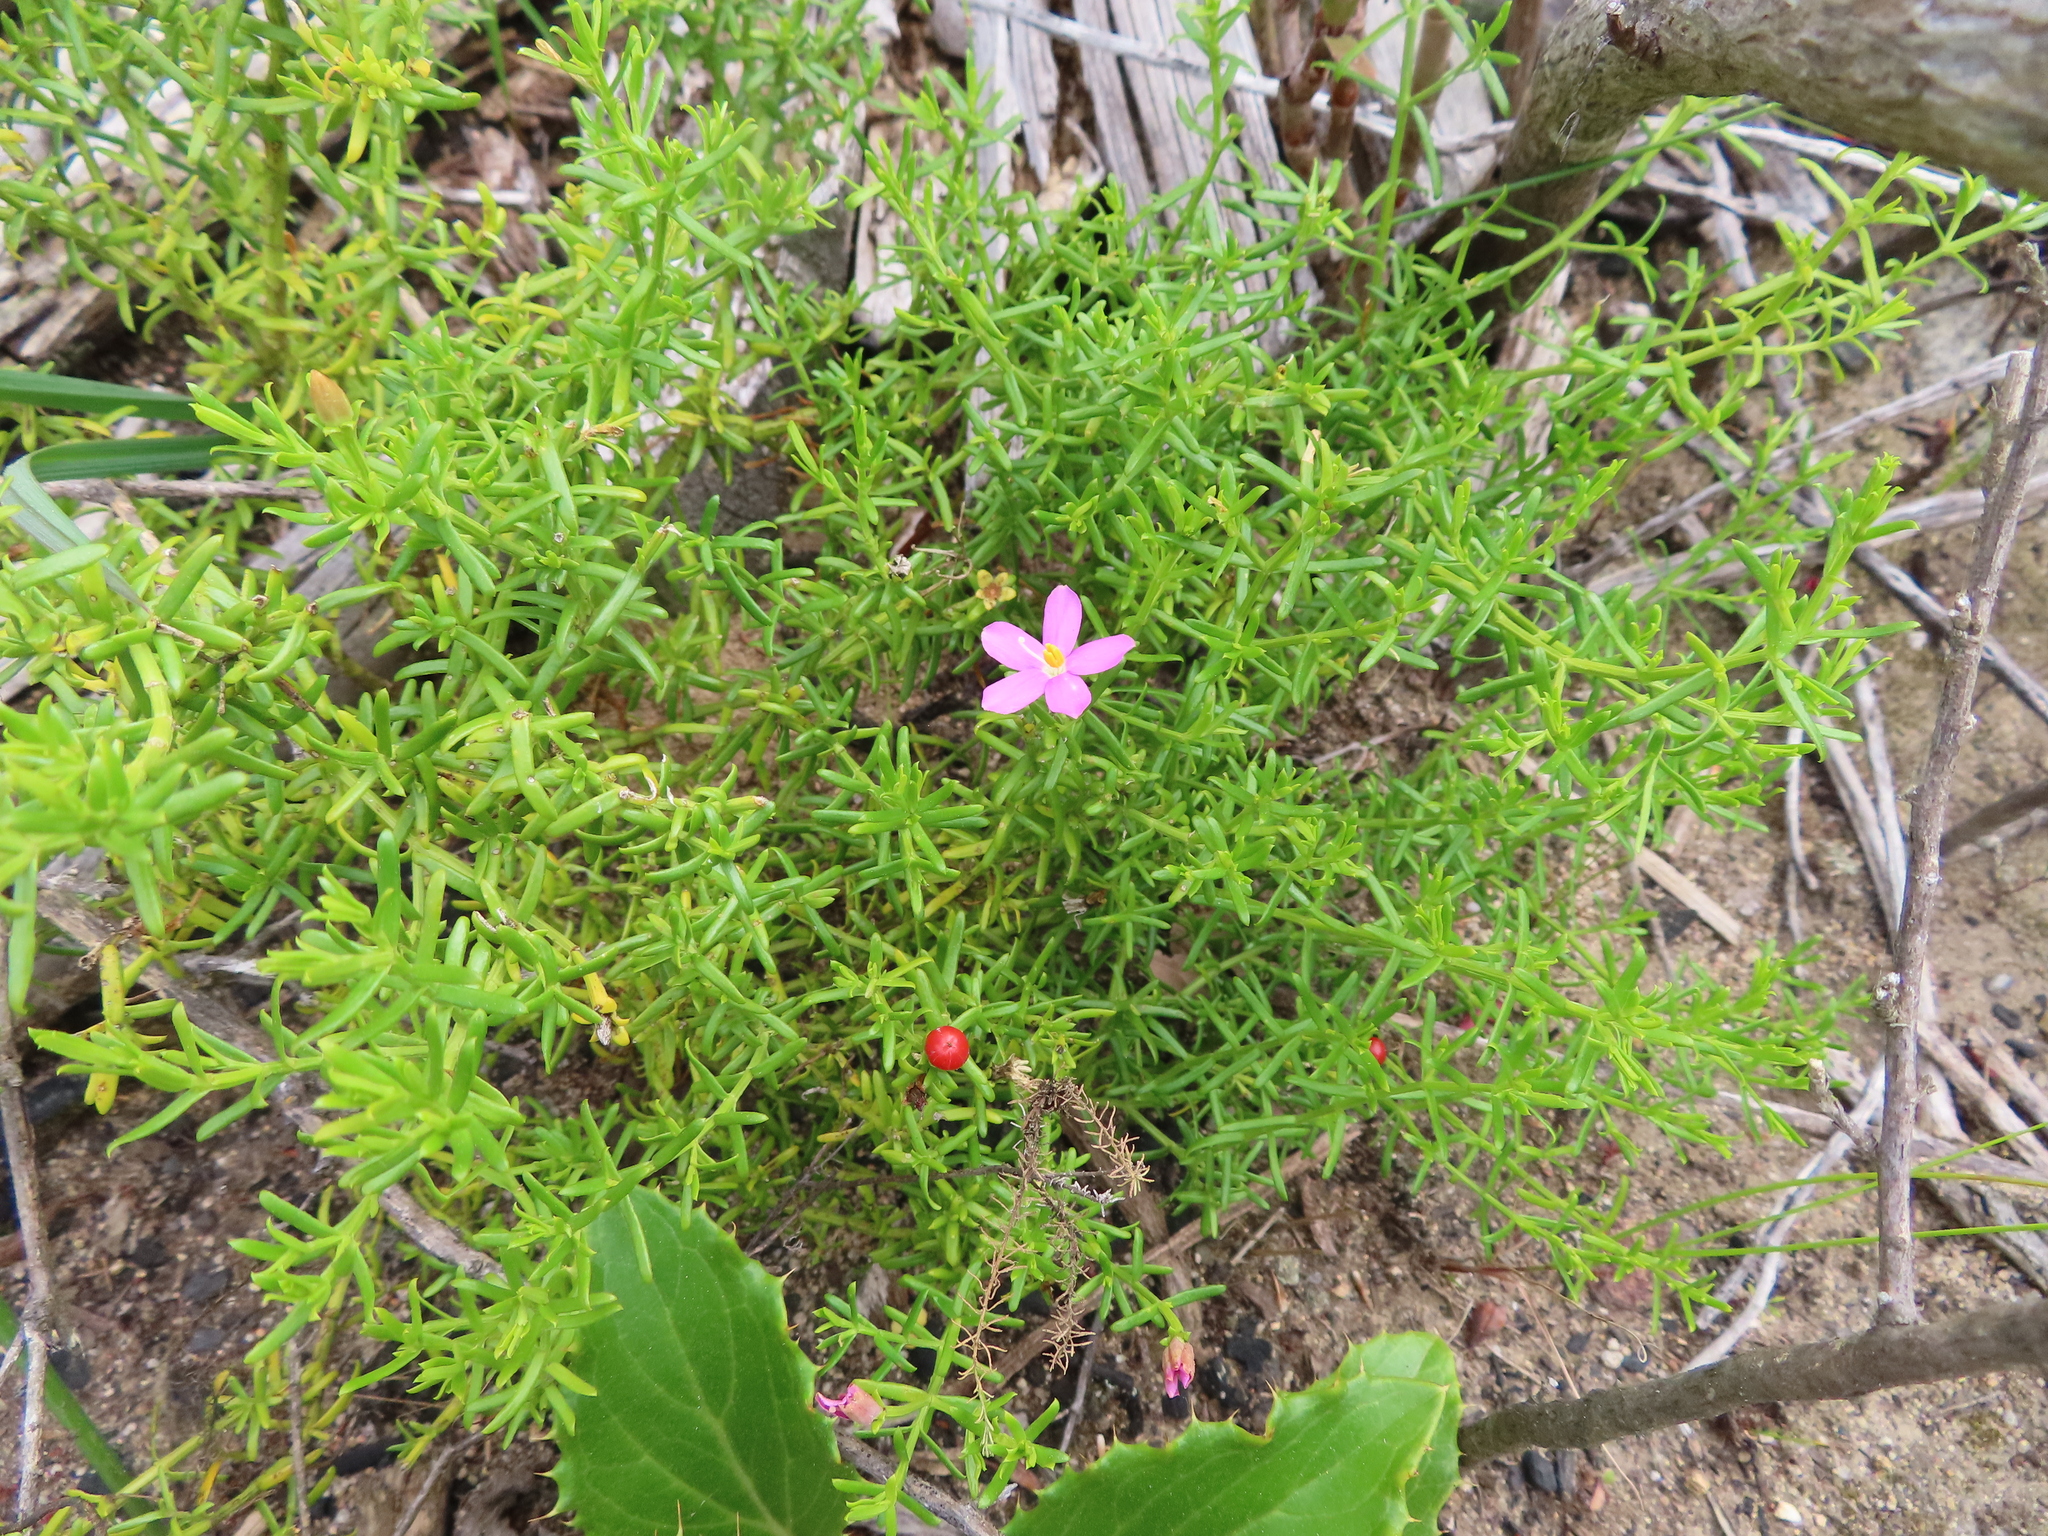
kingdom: Plantae
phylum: Tracheophyta
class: Magnoliopsida
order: Gentianales
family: Gentianaceae
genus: Chironia
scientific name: Chironia baccifera
